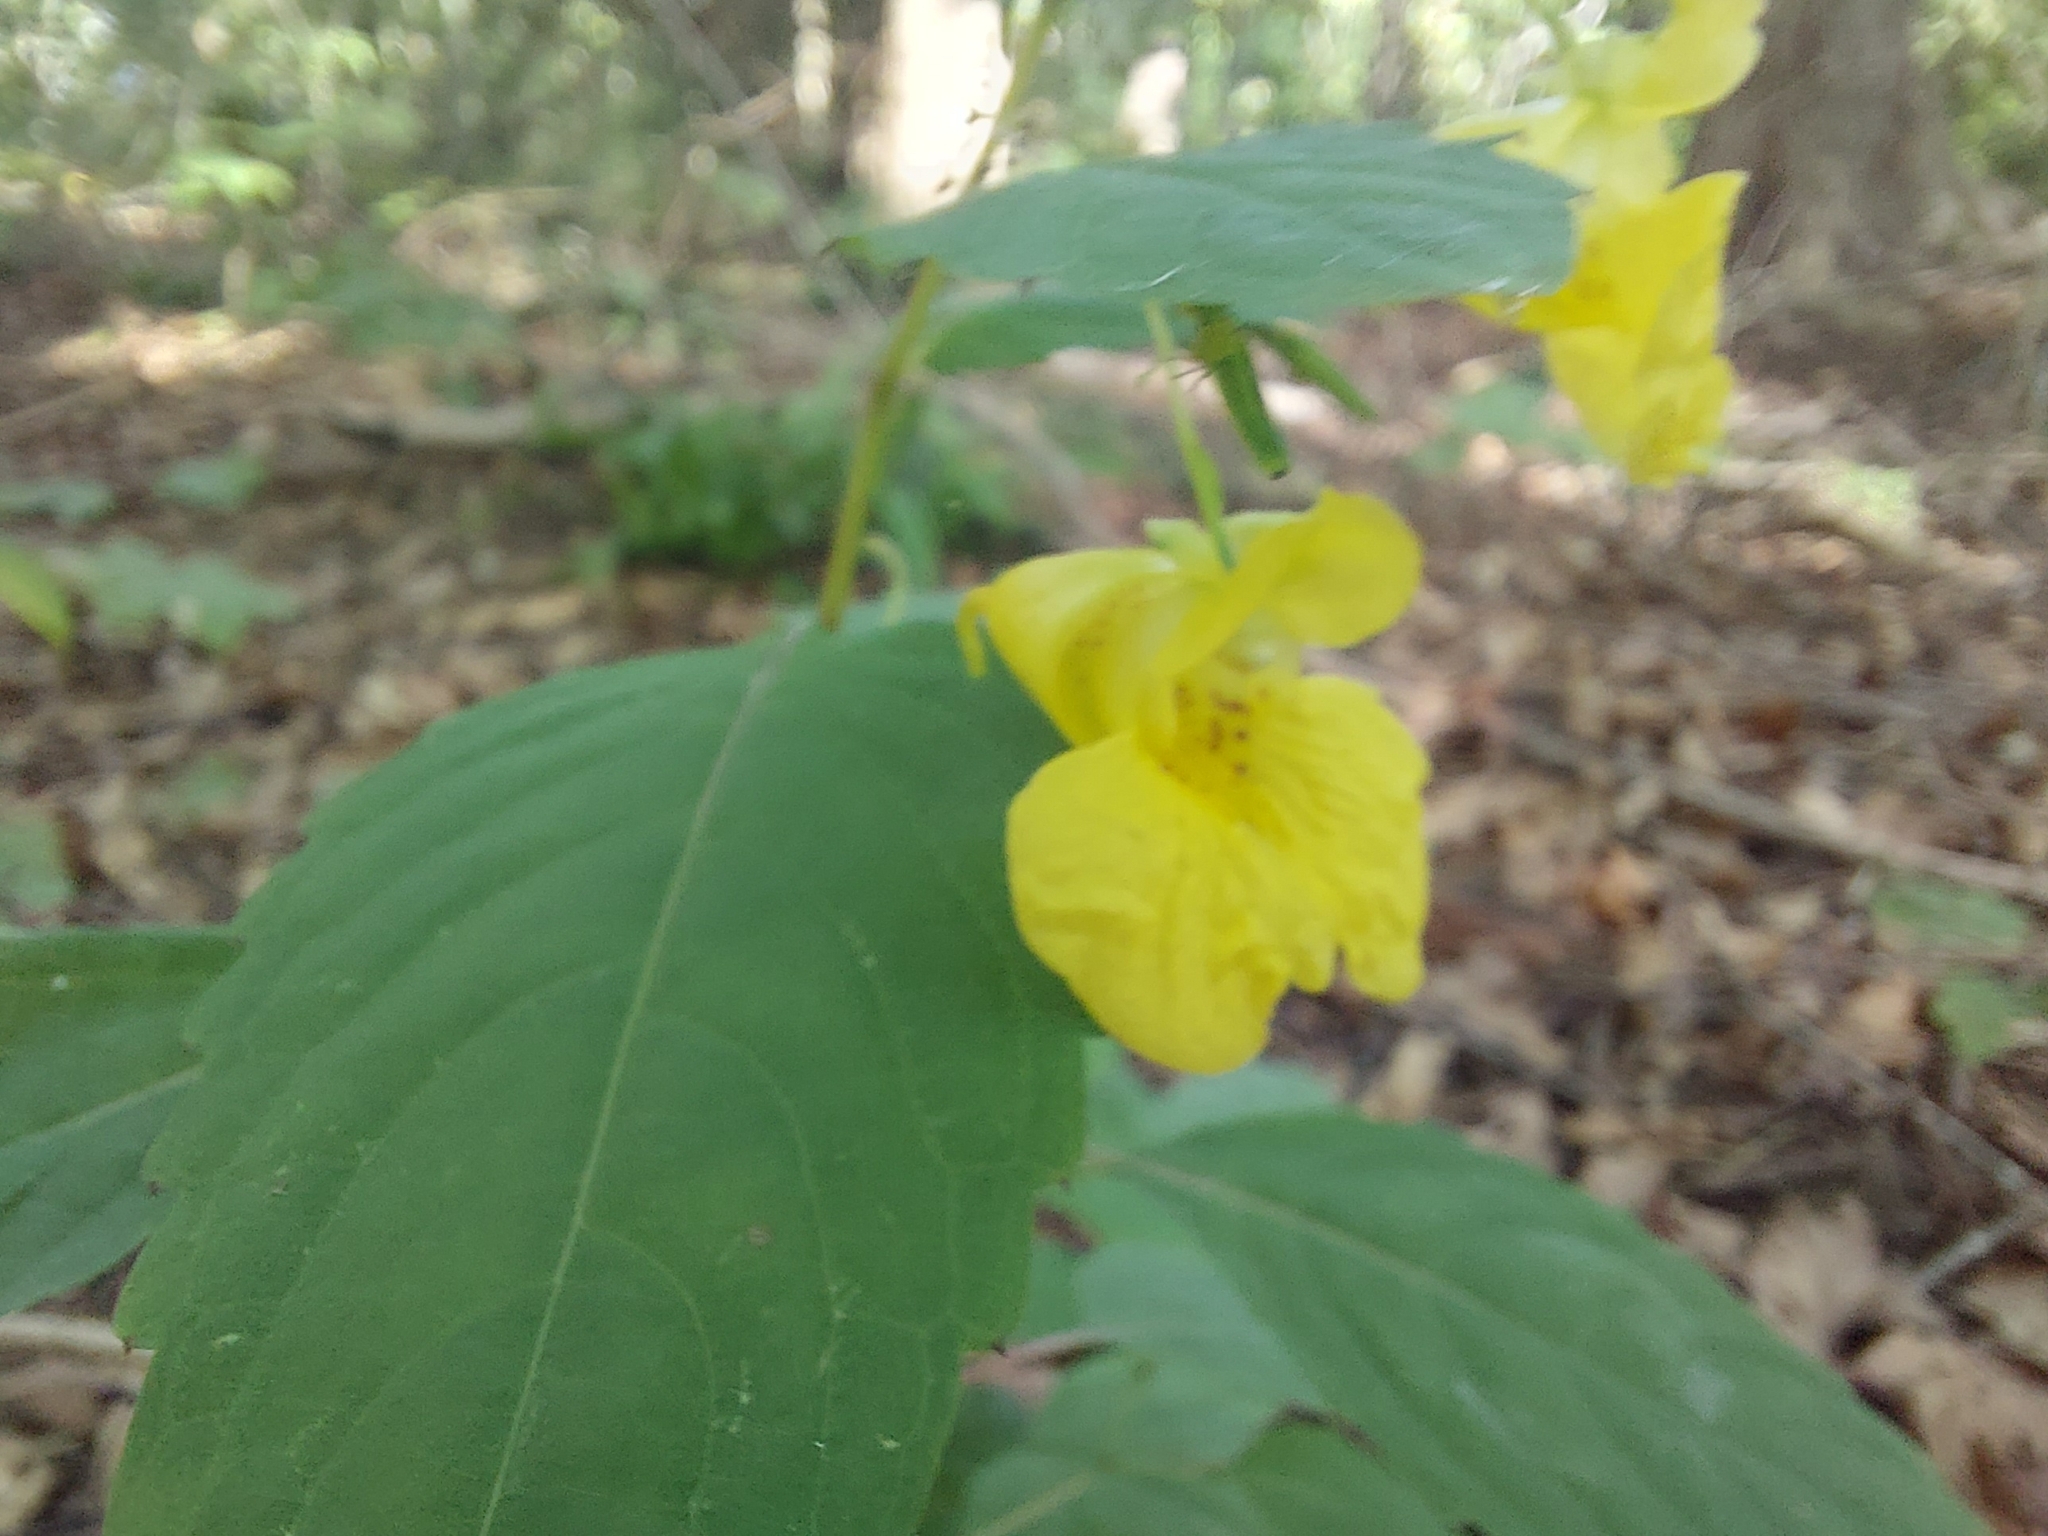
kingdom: Plantae
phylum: Tracheophyta
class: Magnoliopsida
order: Ericales
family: Balsaminaceae
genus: Impatiens
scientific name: Impatiens pallida
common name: Pale snapweed
